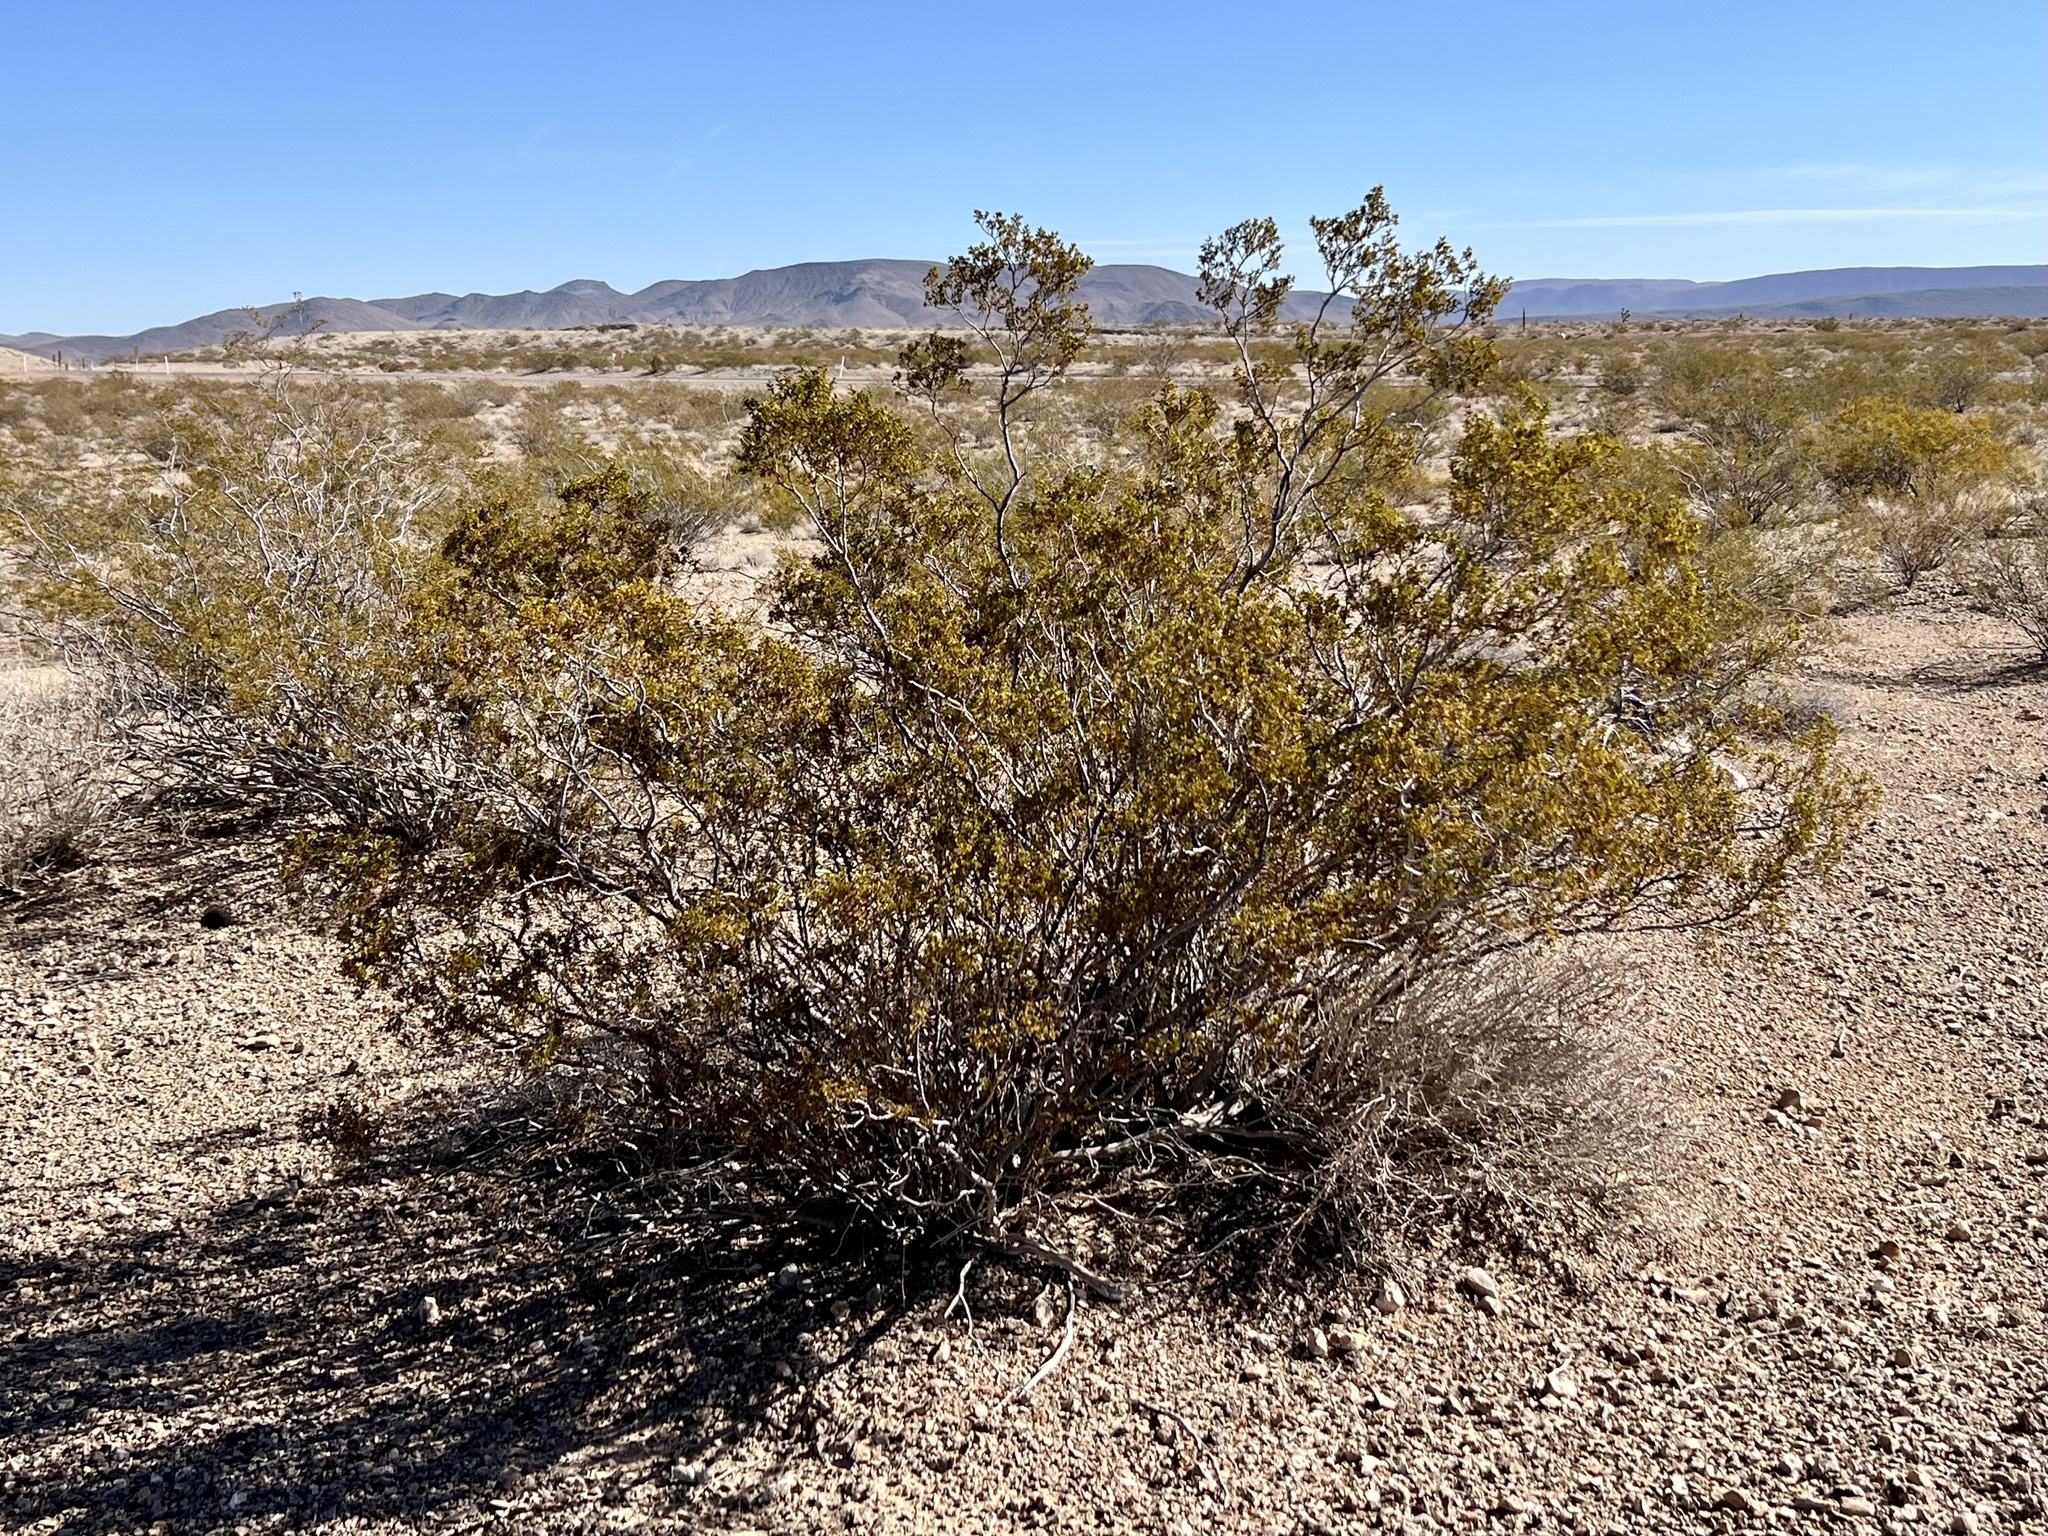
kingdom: Plantae
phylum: Tracheophyta
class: Magnoliopsida
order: Zygophyllales
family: Zygophyllaceae
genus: Larrea
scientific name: Larrea tridentata
